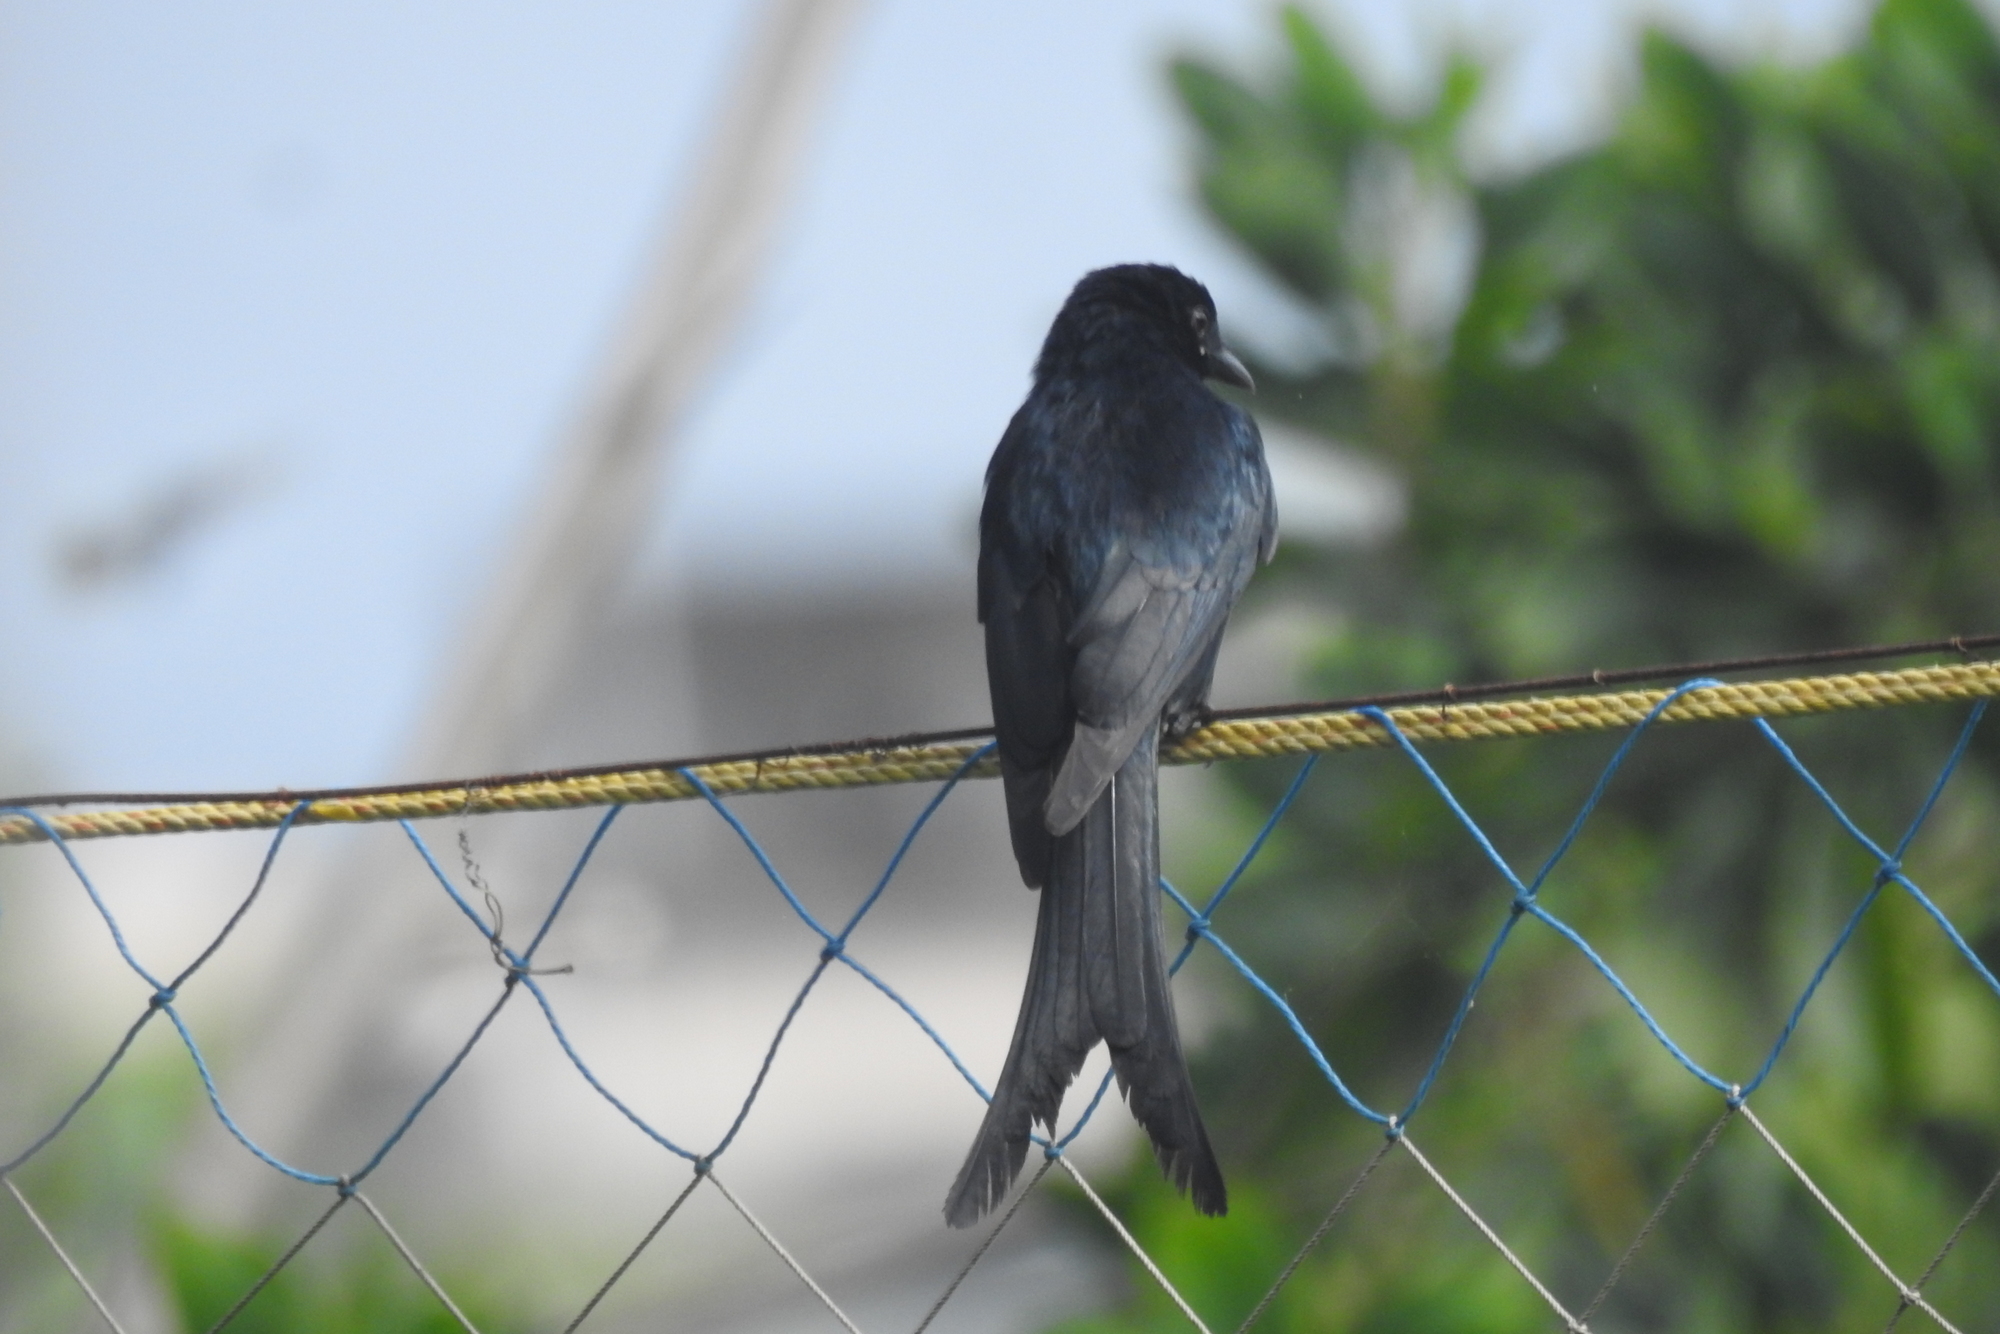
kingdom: Animalia
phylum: Chordata
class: Aves
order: Passeriformes
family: Dicruridae
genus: Dicrurus
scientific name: Dicrurus macrocercus
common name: Black drongo
